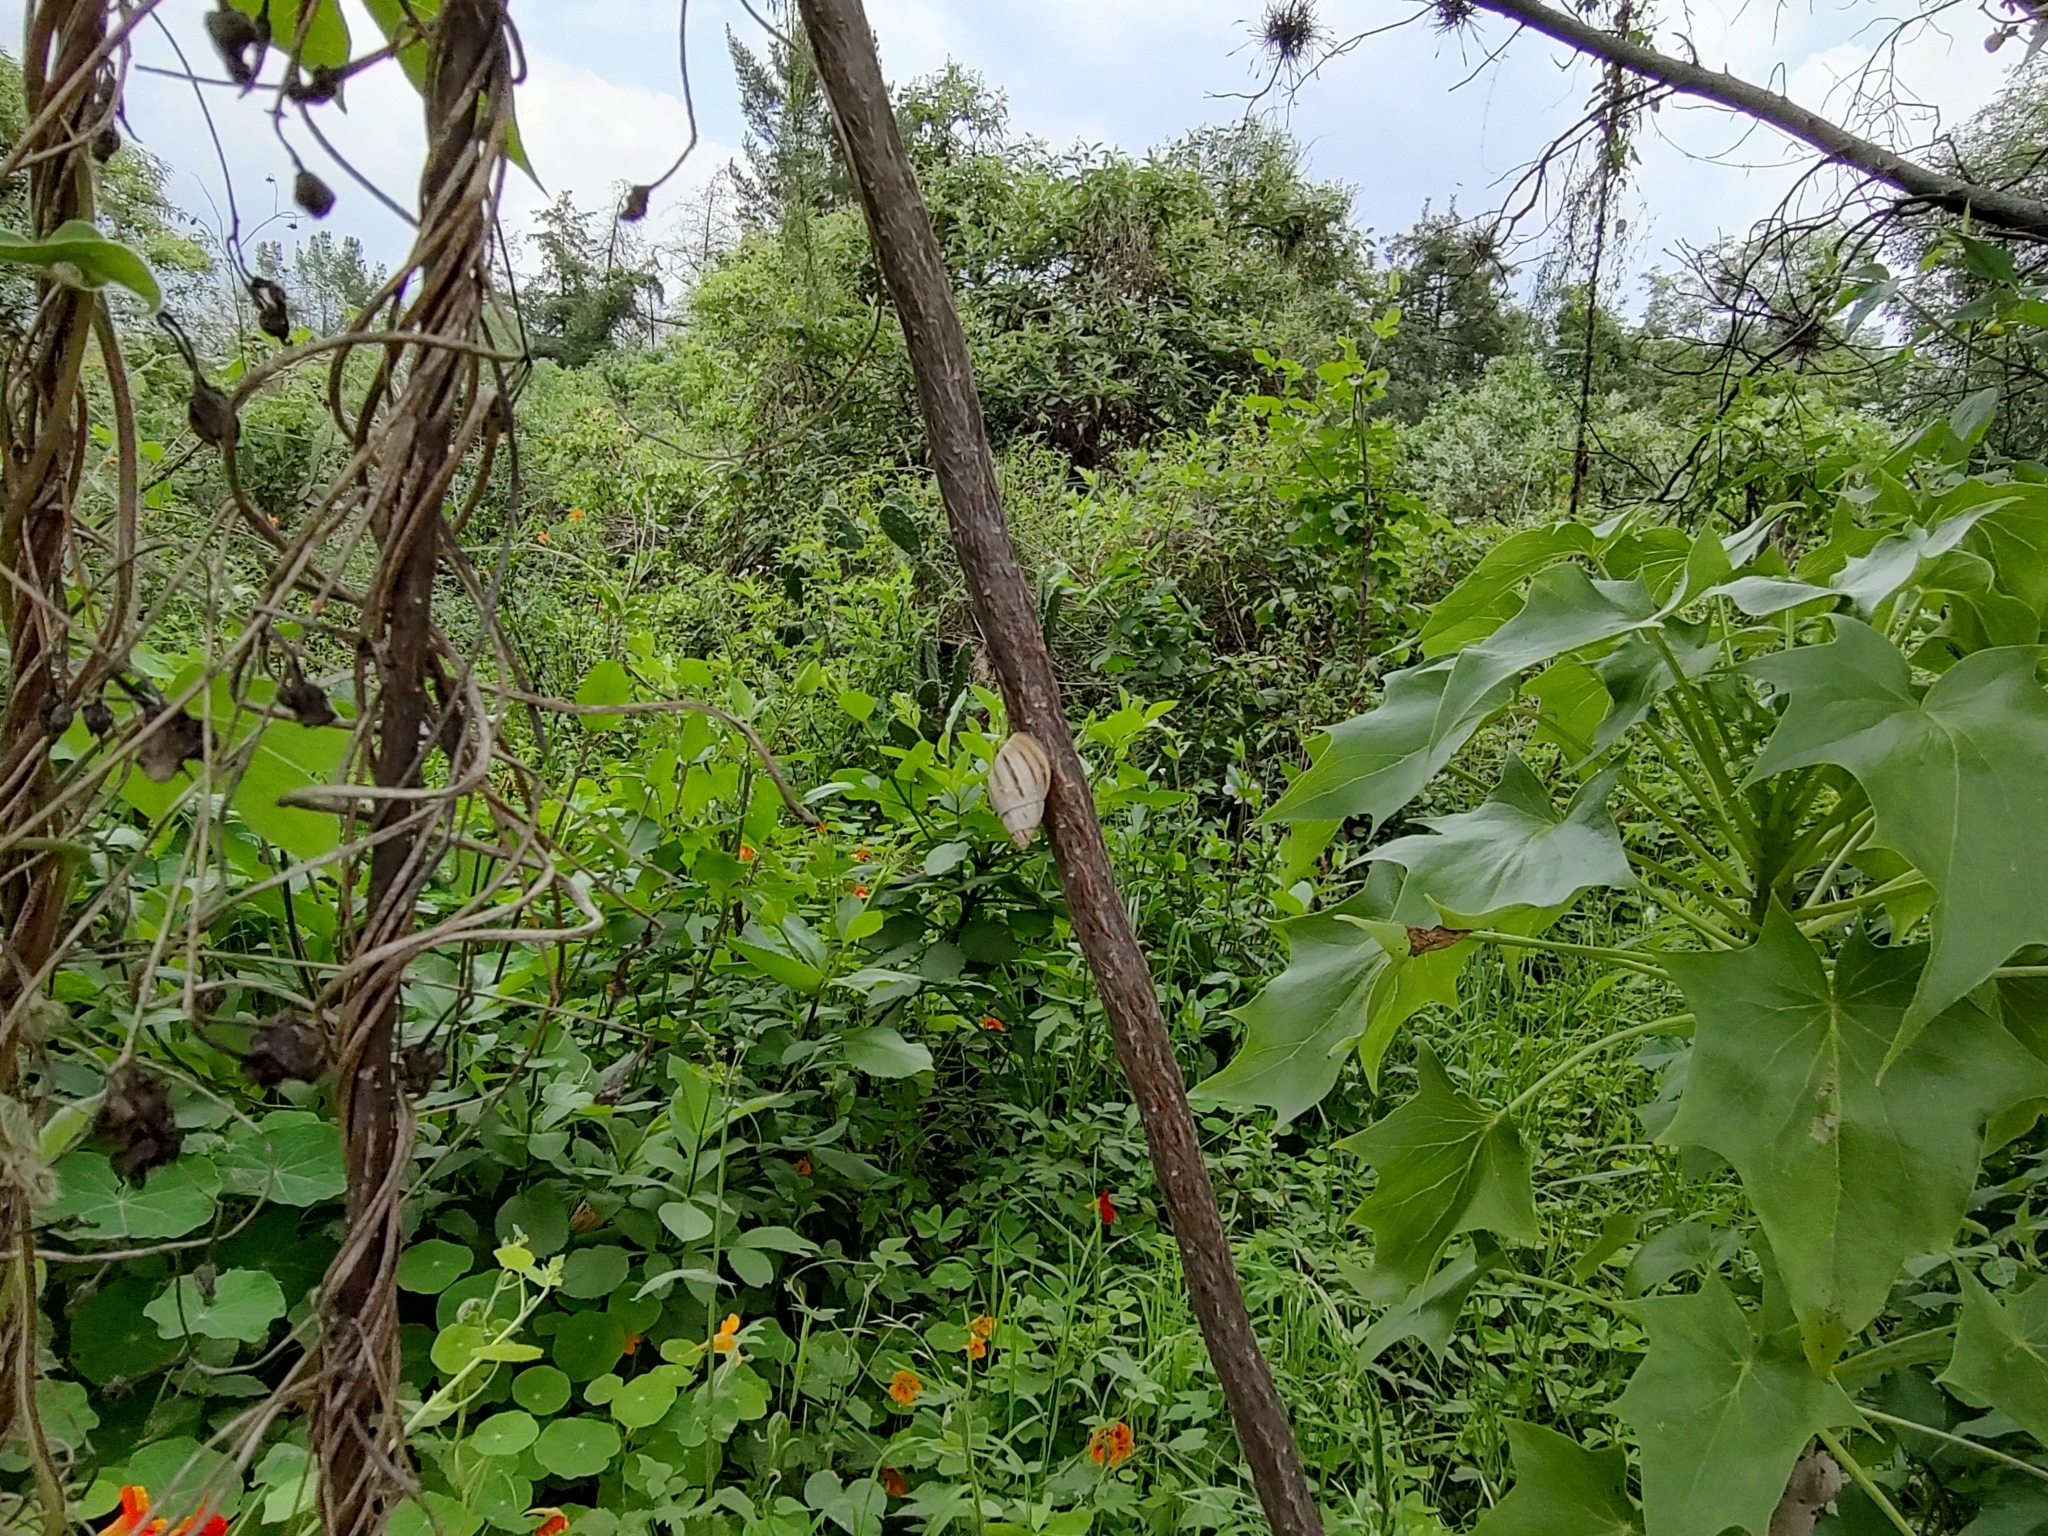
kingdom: Animalia
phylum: Mollusca
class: Gastropoda
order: Stylommatophora
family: Bulimulidae
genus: Drymaeus
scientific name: Drymaeus
